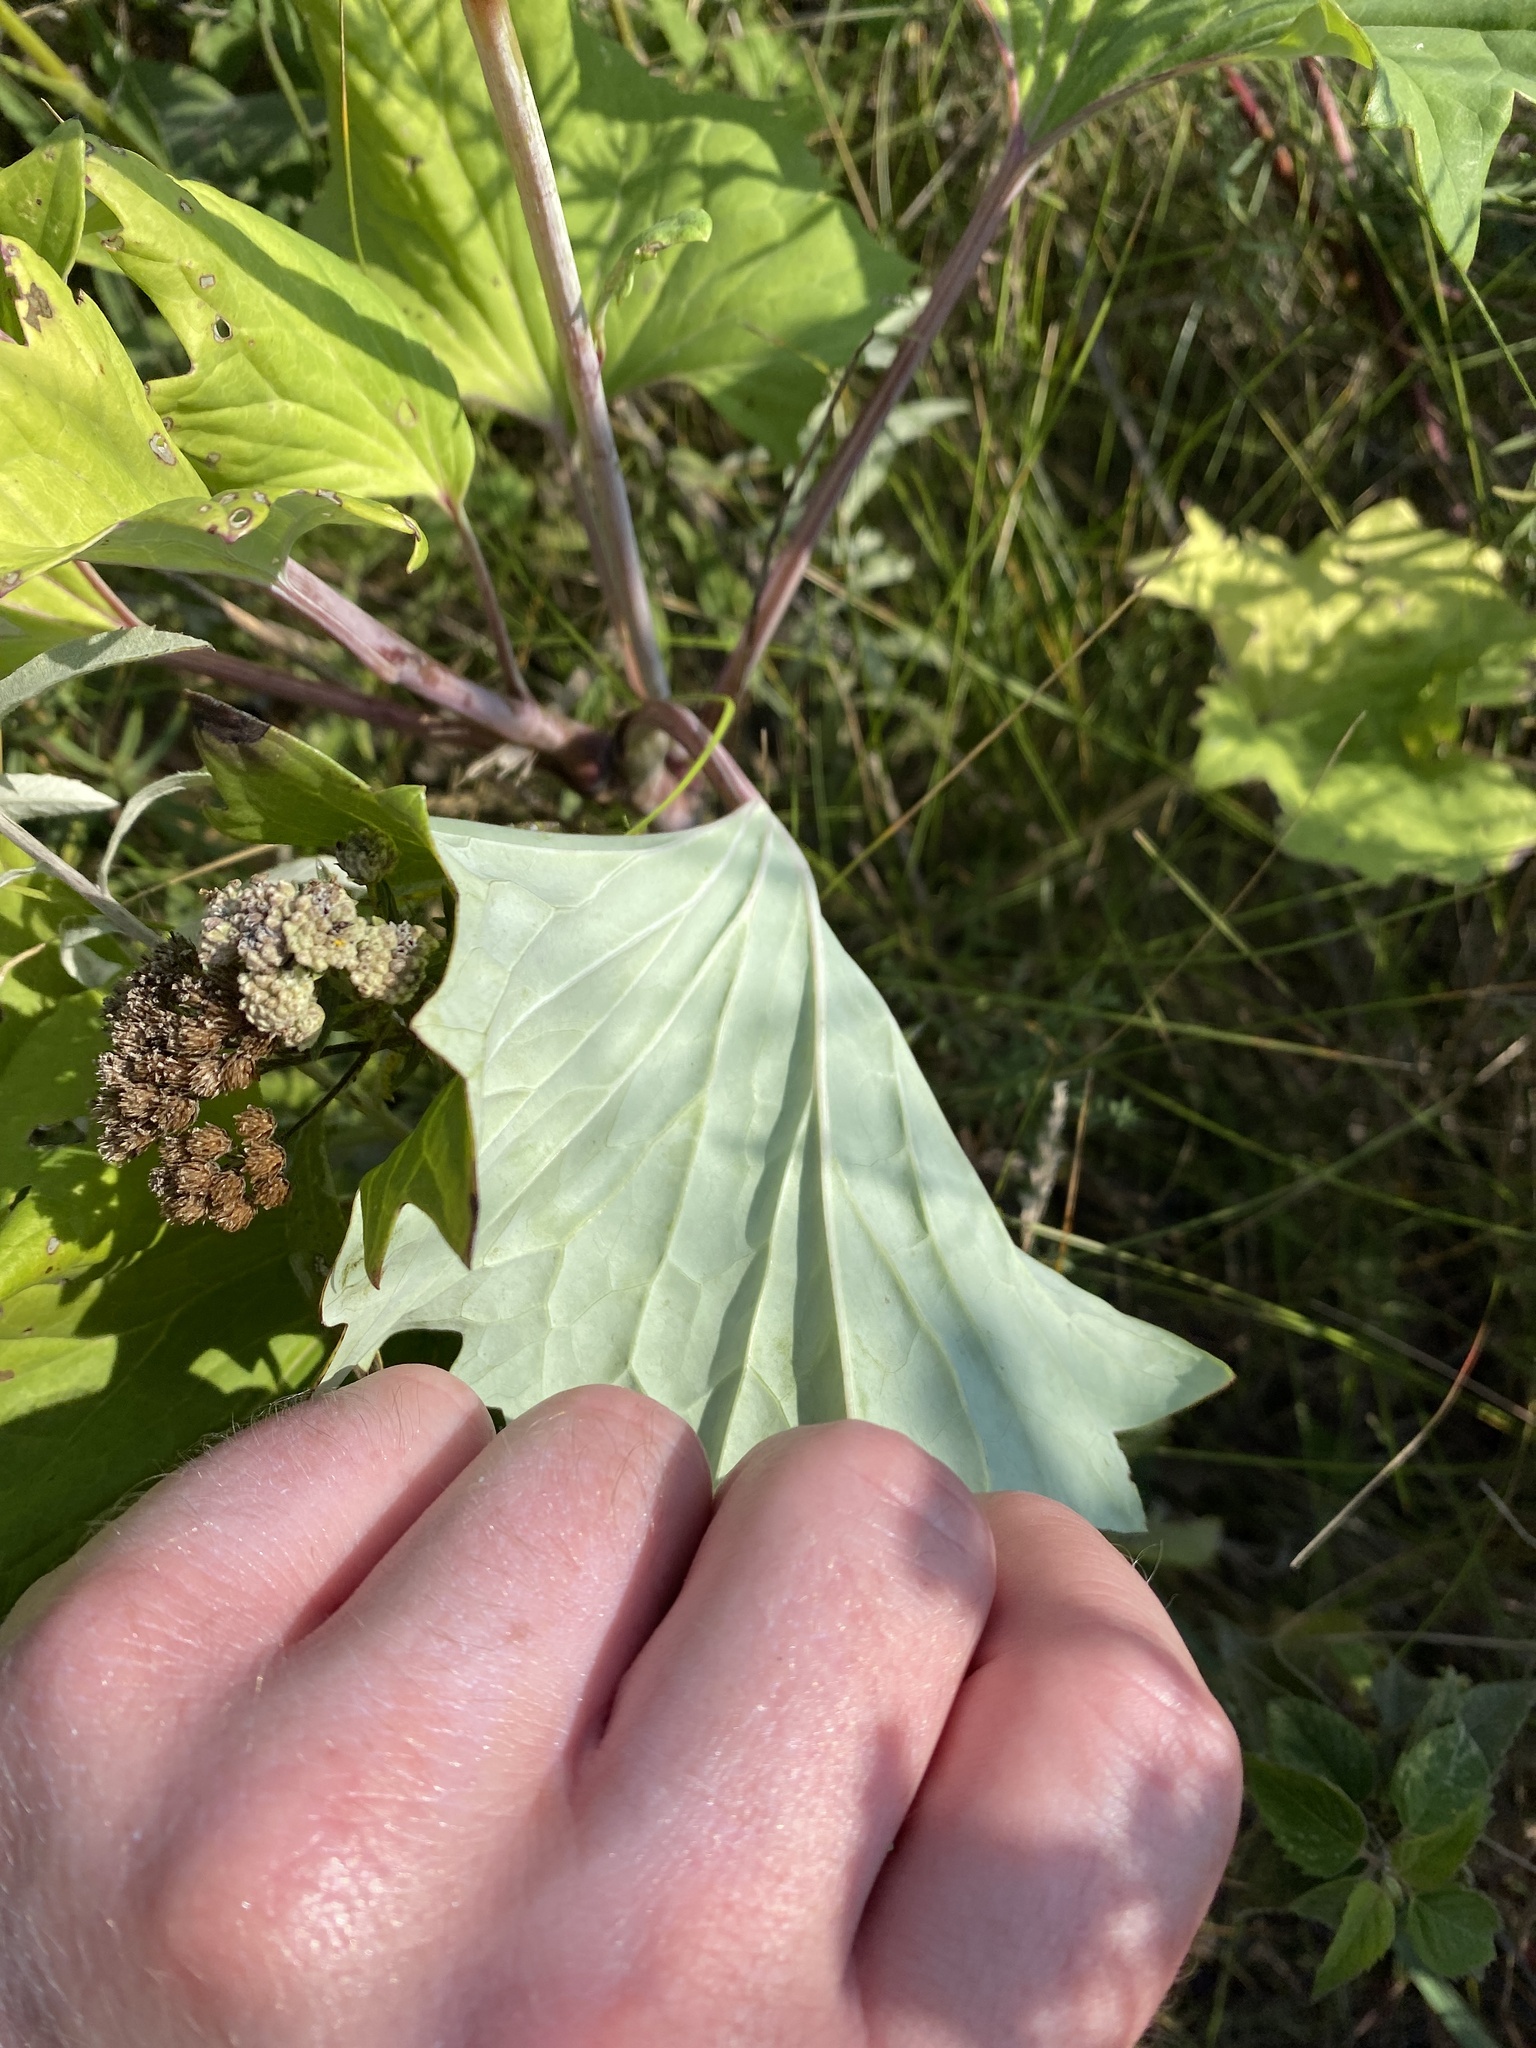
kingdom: Plantae
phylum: Tracheophyta
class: Magnoliopsida
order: Asterales
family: Asteraceae
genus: Arnoglossum
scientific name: Arnoglossum atriplicifolium
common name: Pale indian-plantain
